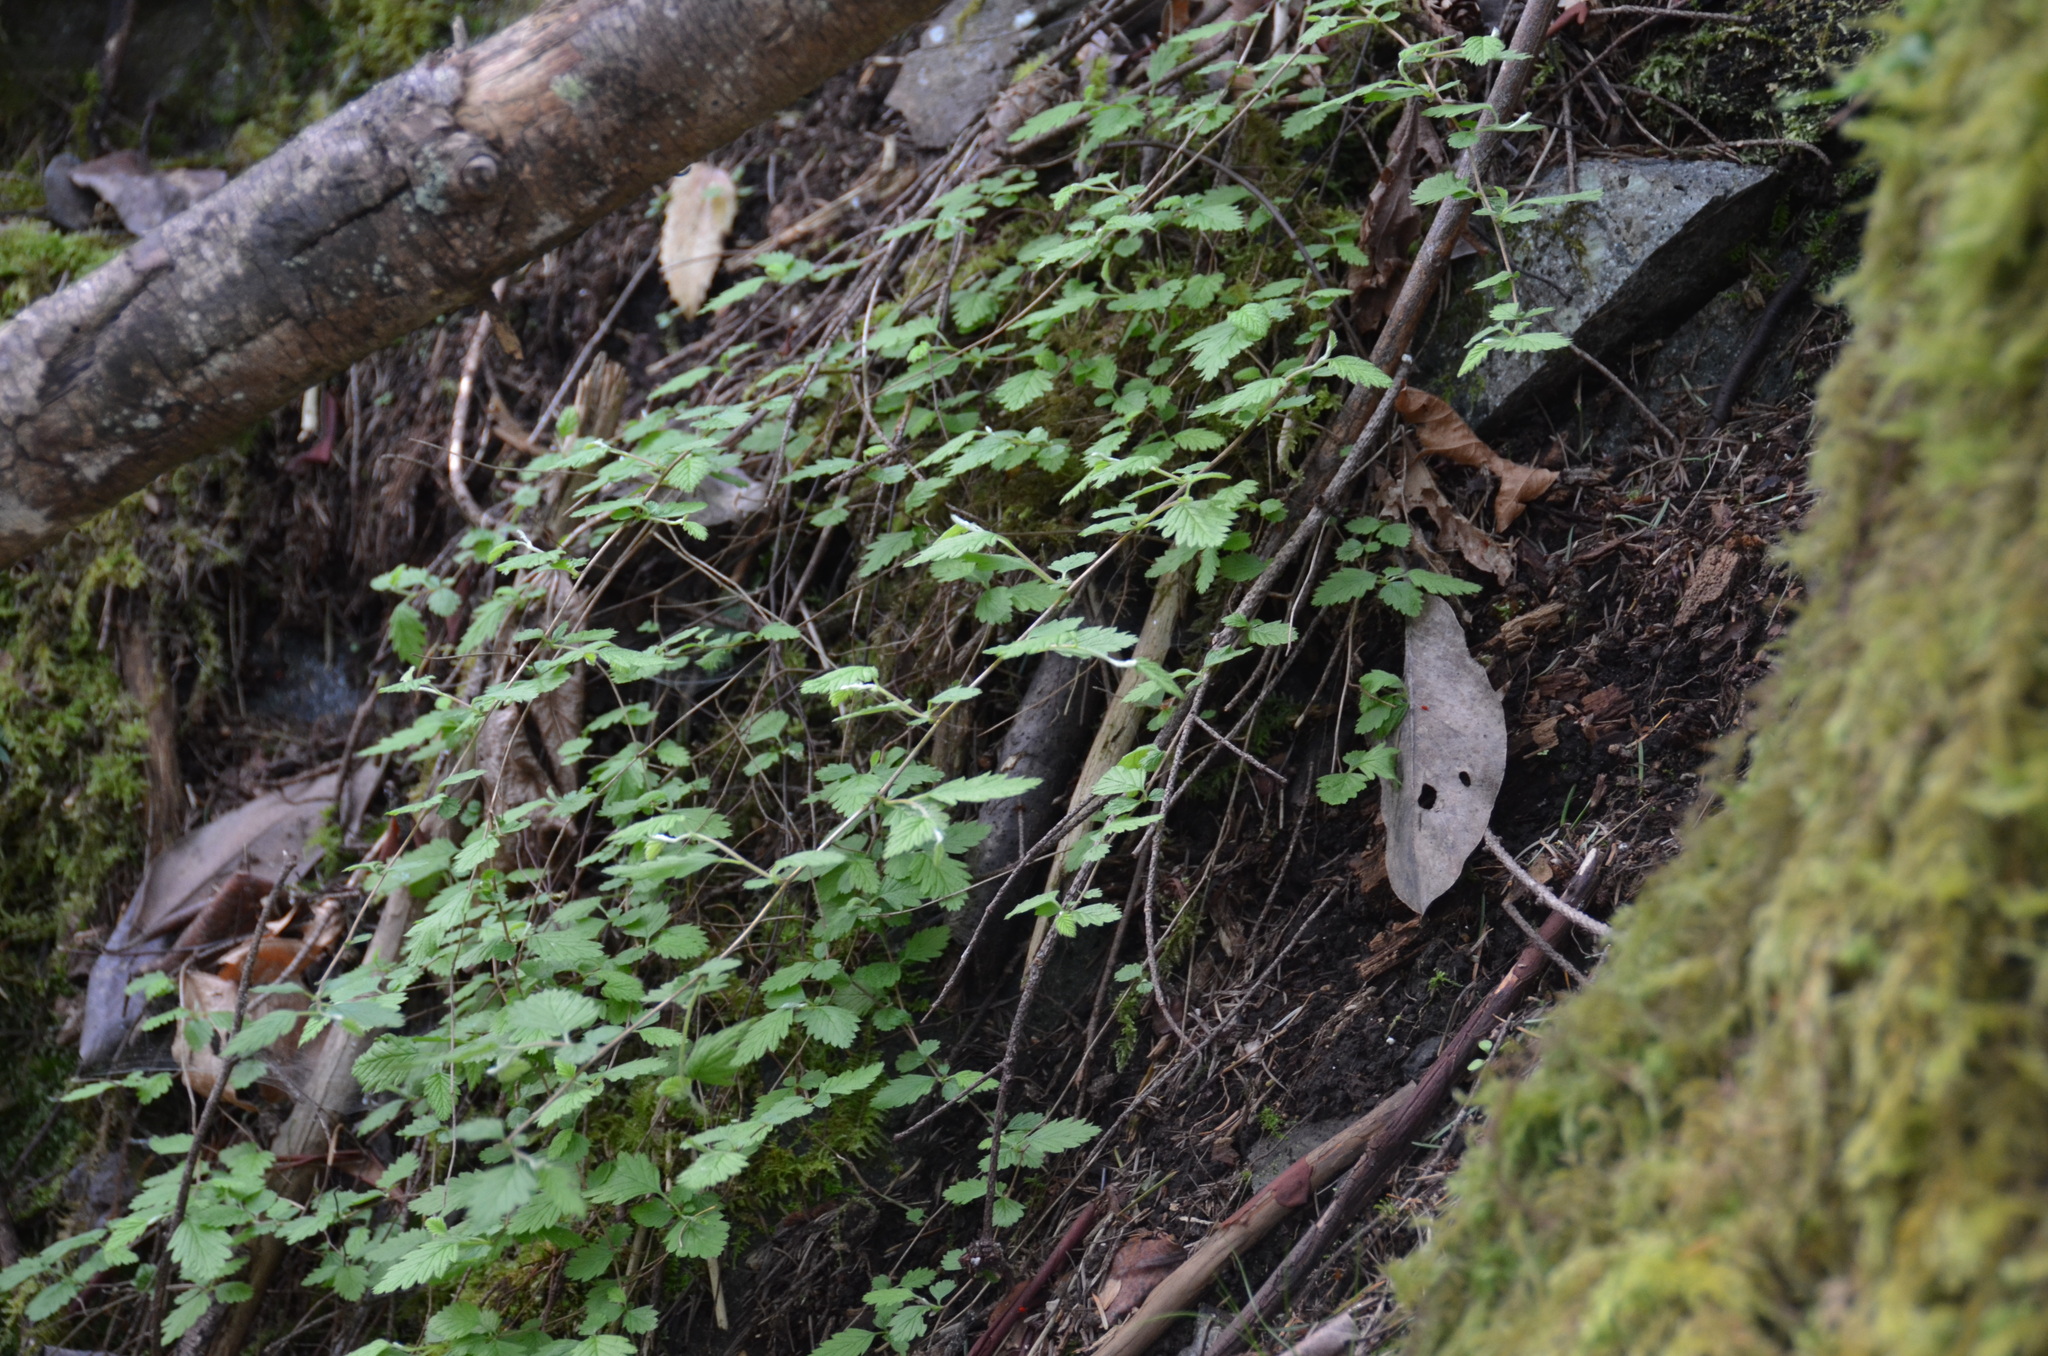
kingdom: Plantae
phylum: Tracheophyta
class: Magnoliopsida
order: Rosales
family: Rosaceae
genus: Holodiscus
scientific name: Holodiscus discolor
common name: Oceanspray
